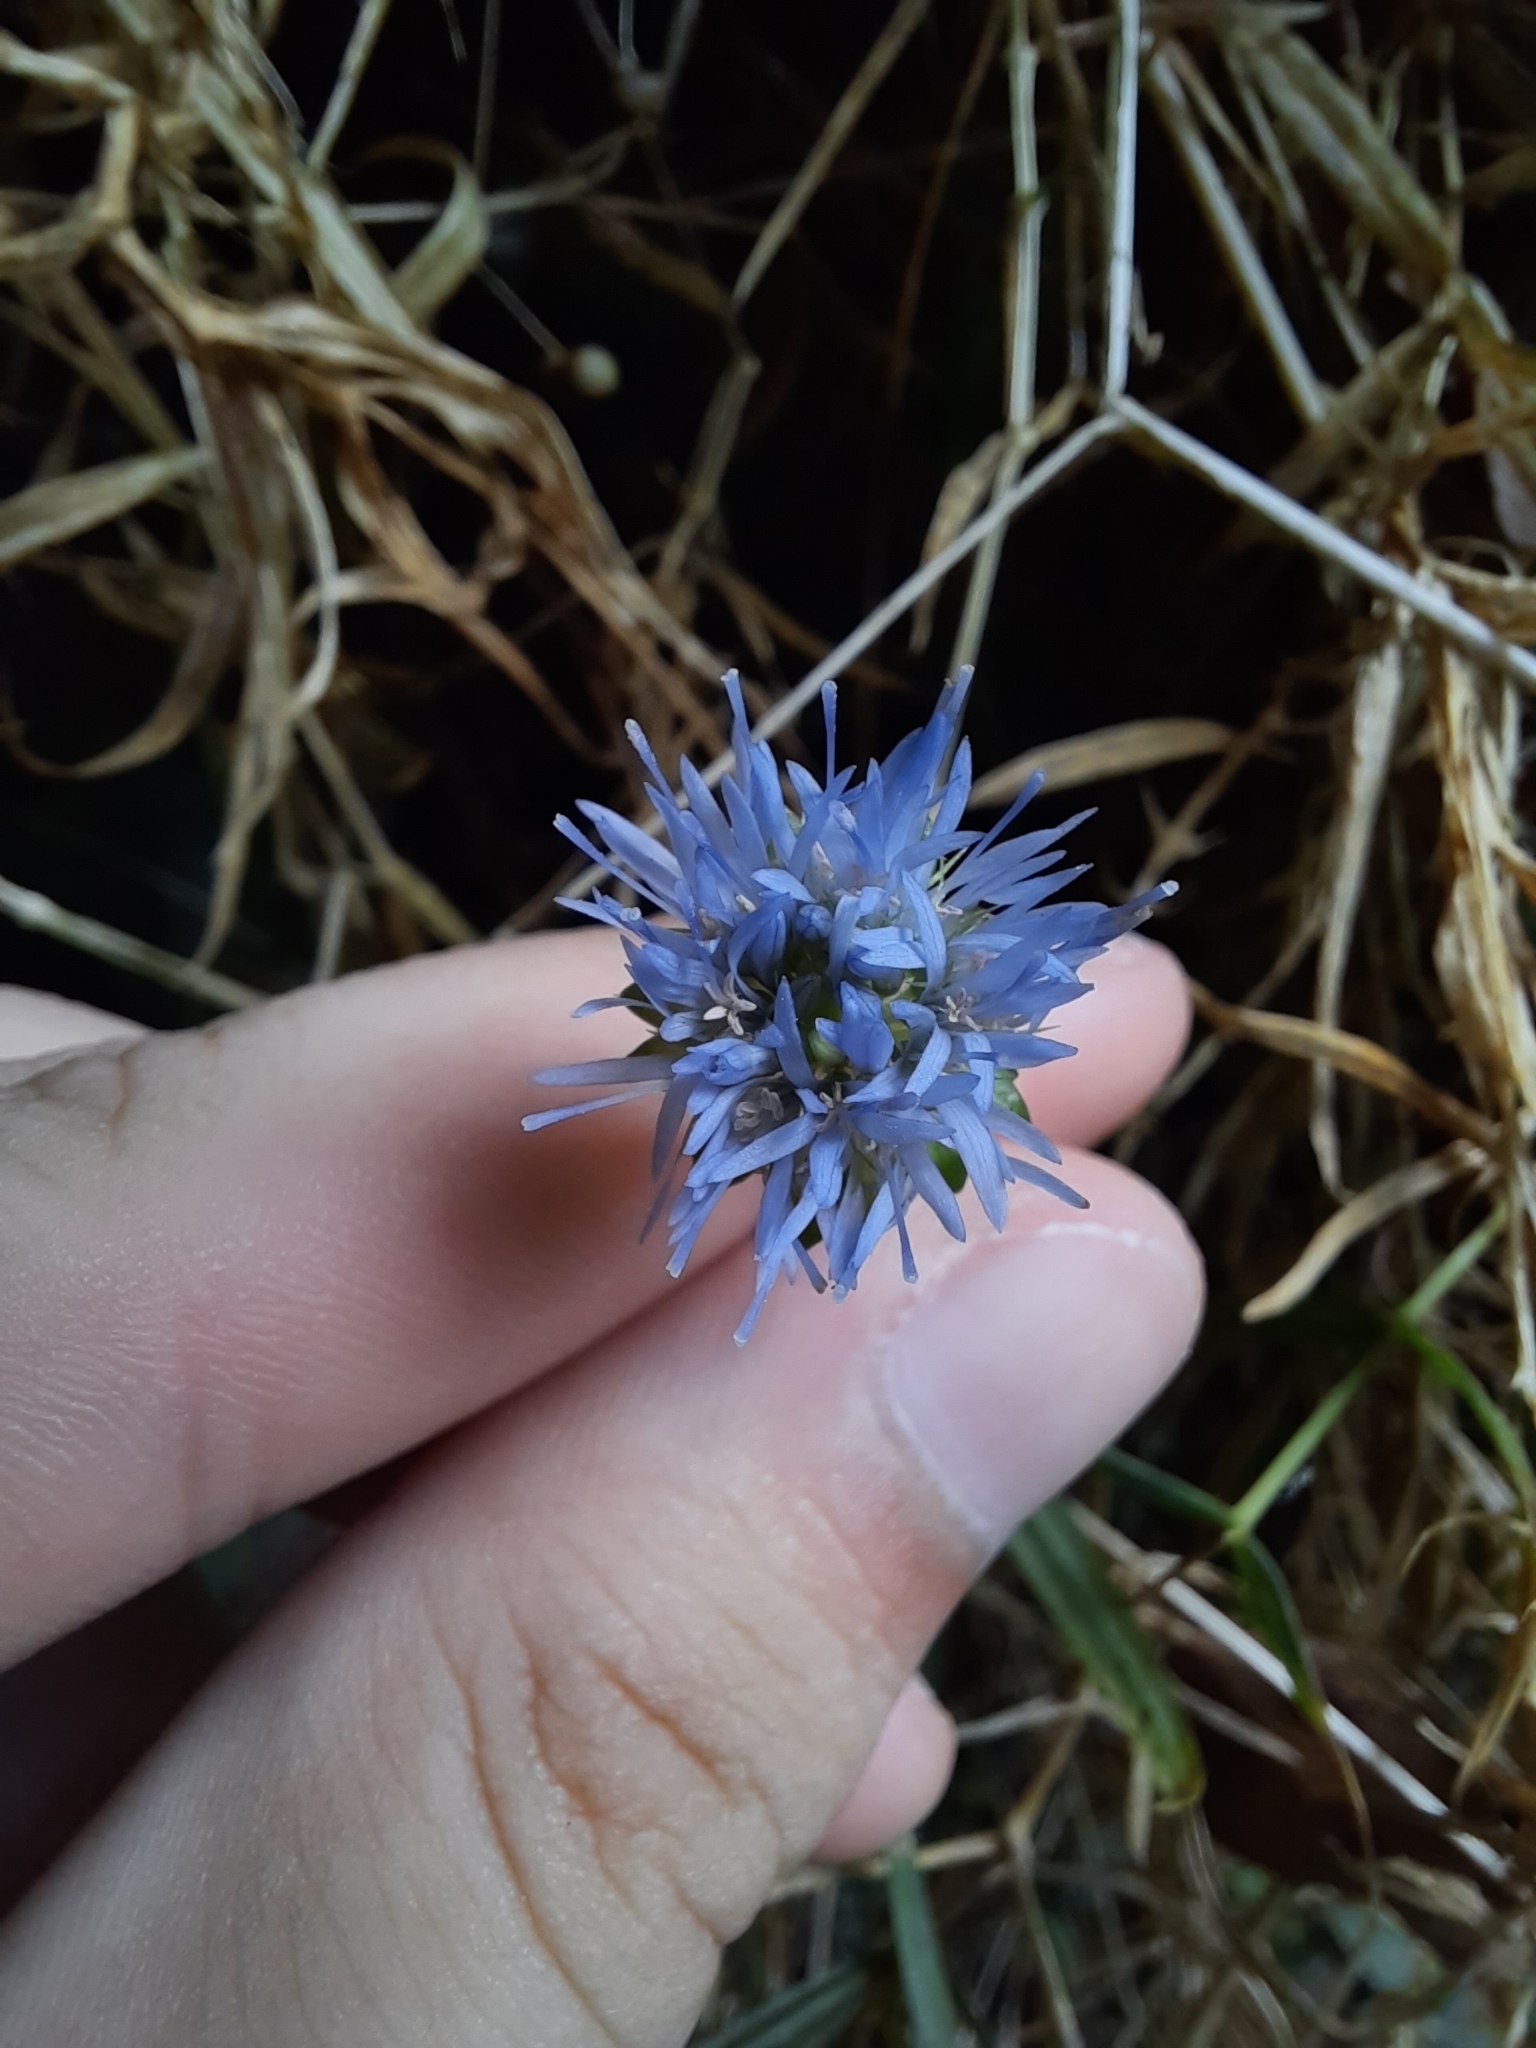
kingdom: Plantae
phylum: Tracheophyta
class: Magnoliopsida
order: Asterales
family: Campanulaceae
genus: Jasione
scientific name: Jasione montana
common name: Sheep's-bit
